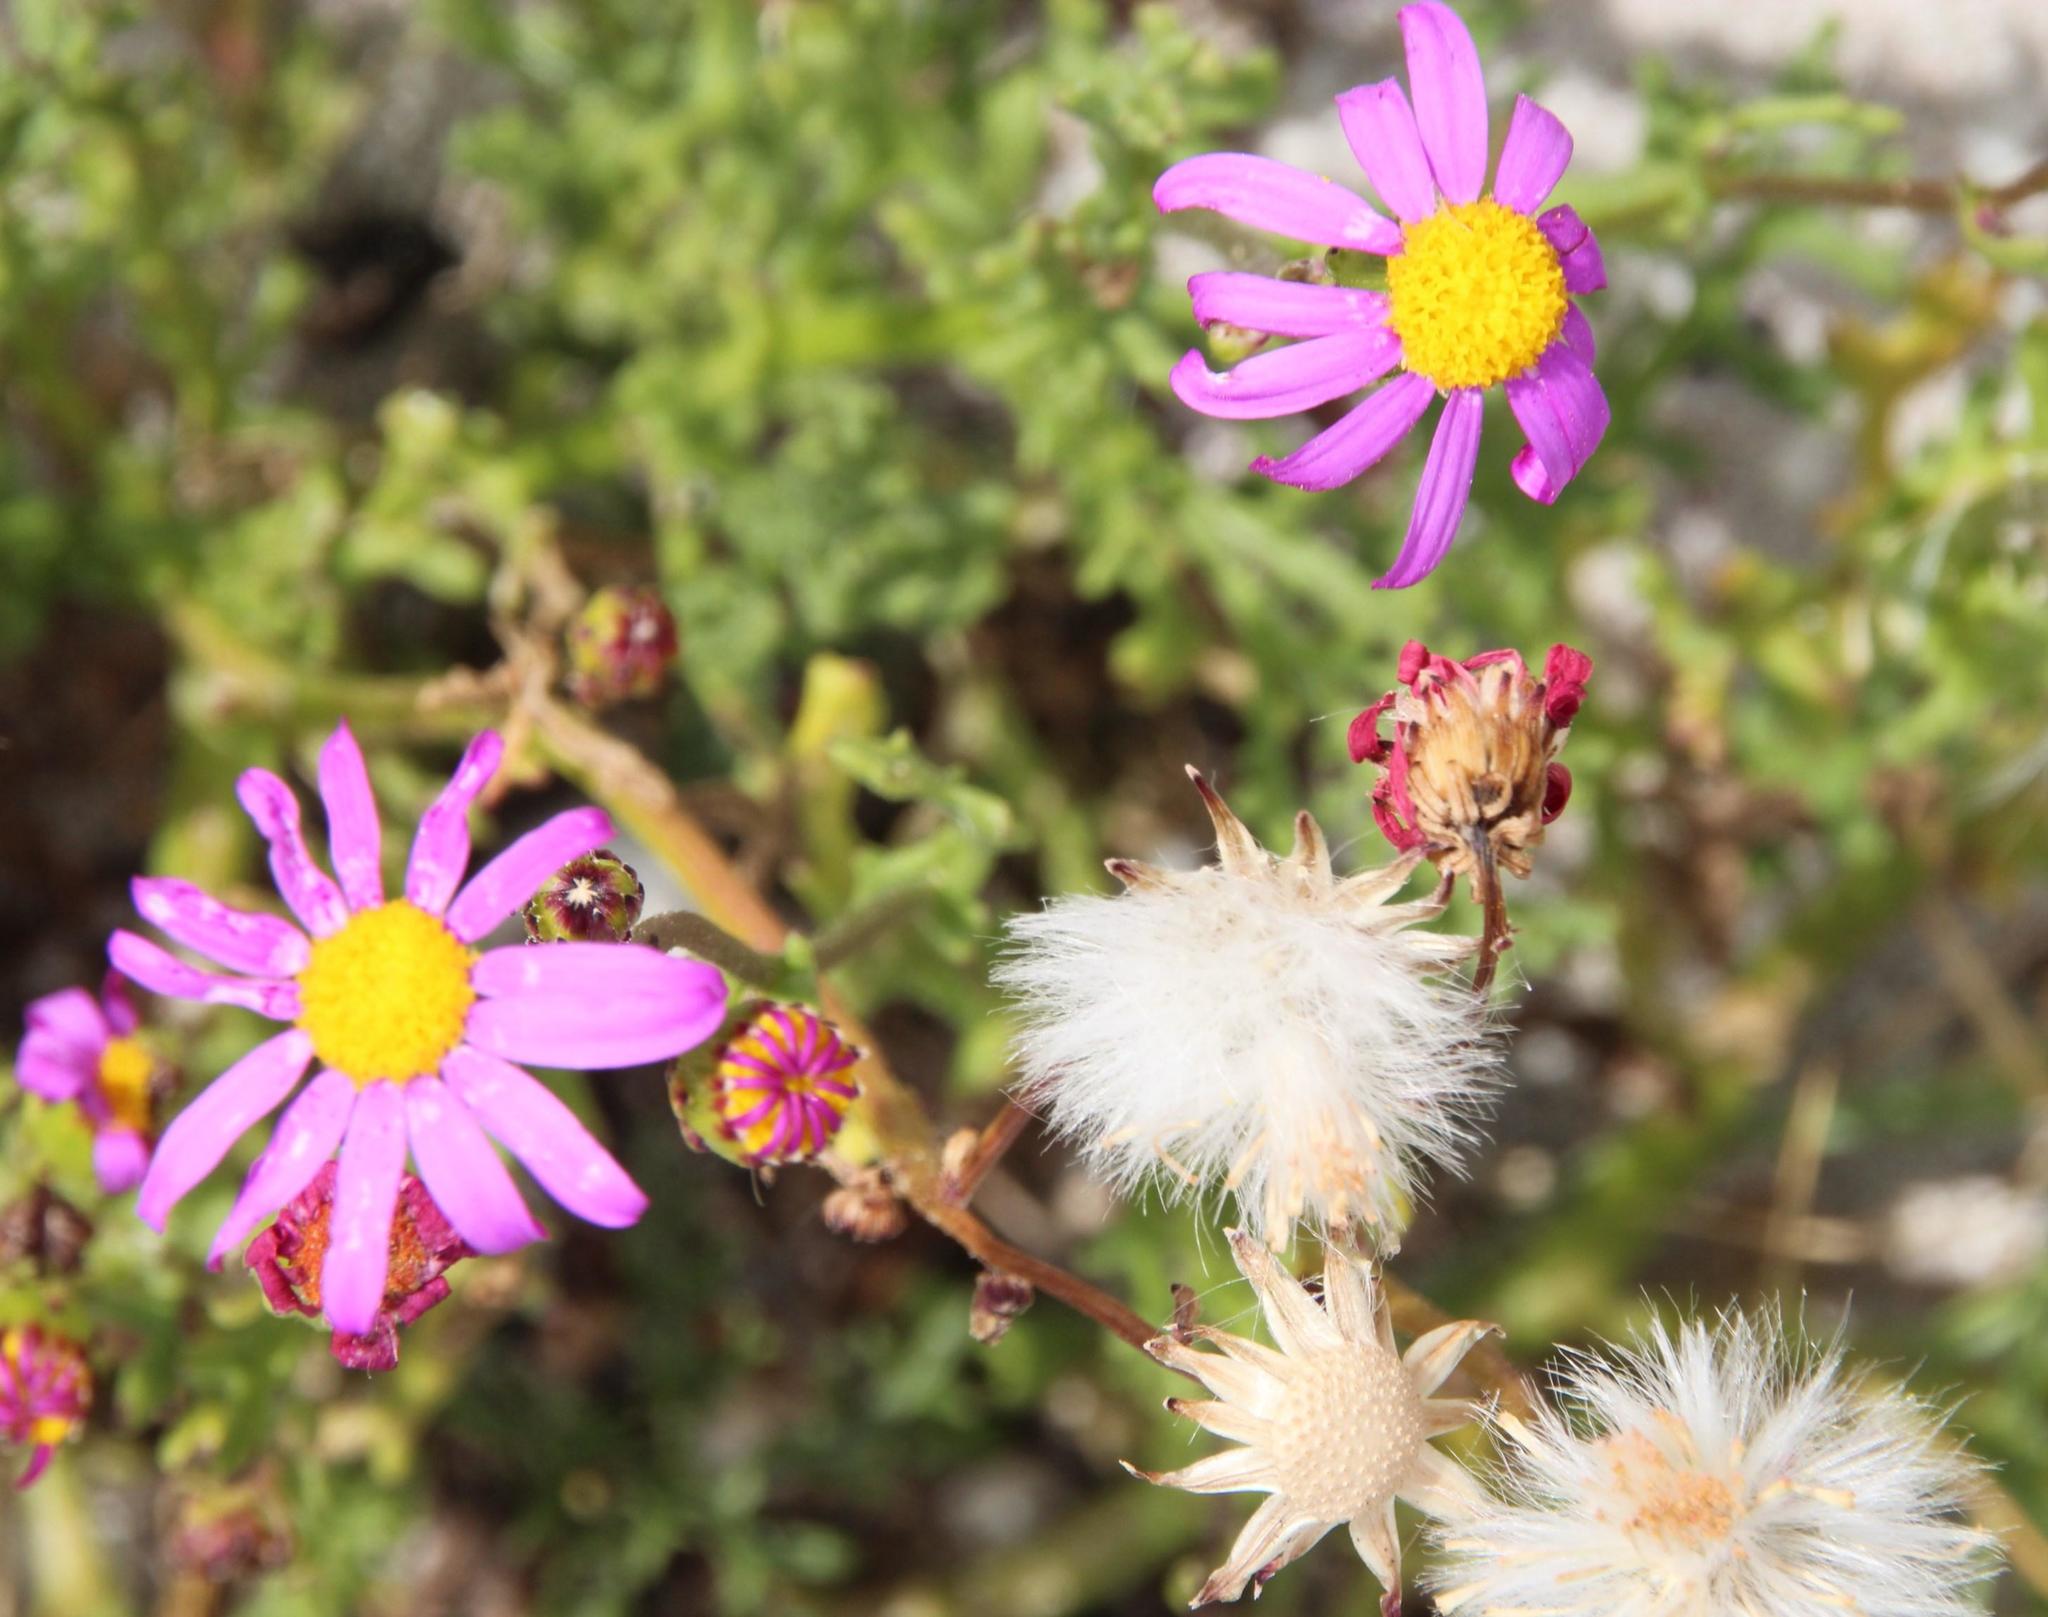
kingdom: Plantae
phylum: Tracheophyta
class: Magnoliopsida
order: Asterales
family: Asteraceae
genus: Senecio
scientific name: Senecio elegans
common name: Purple groundsel
